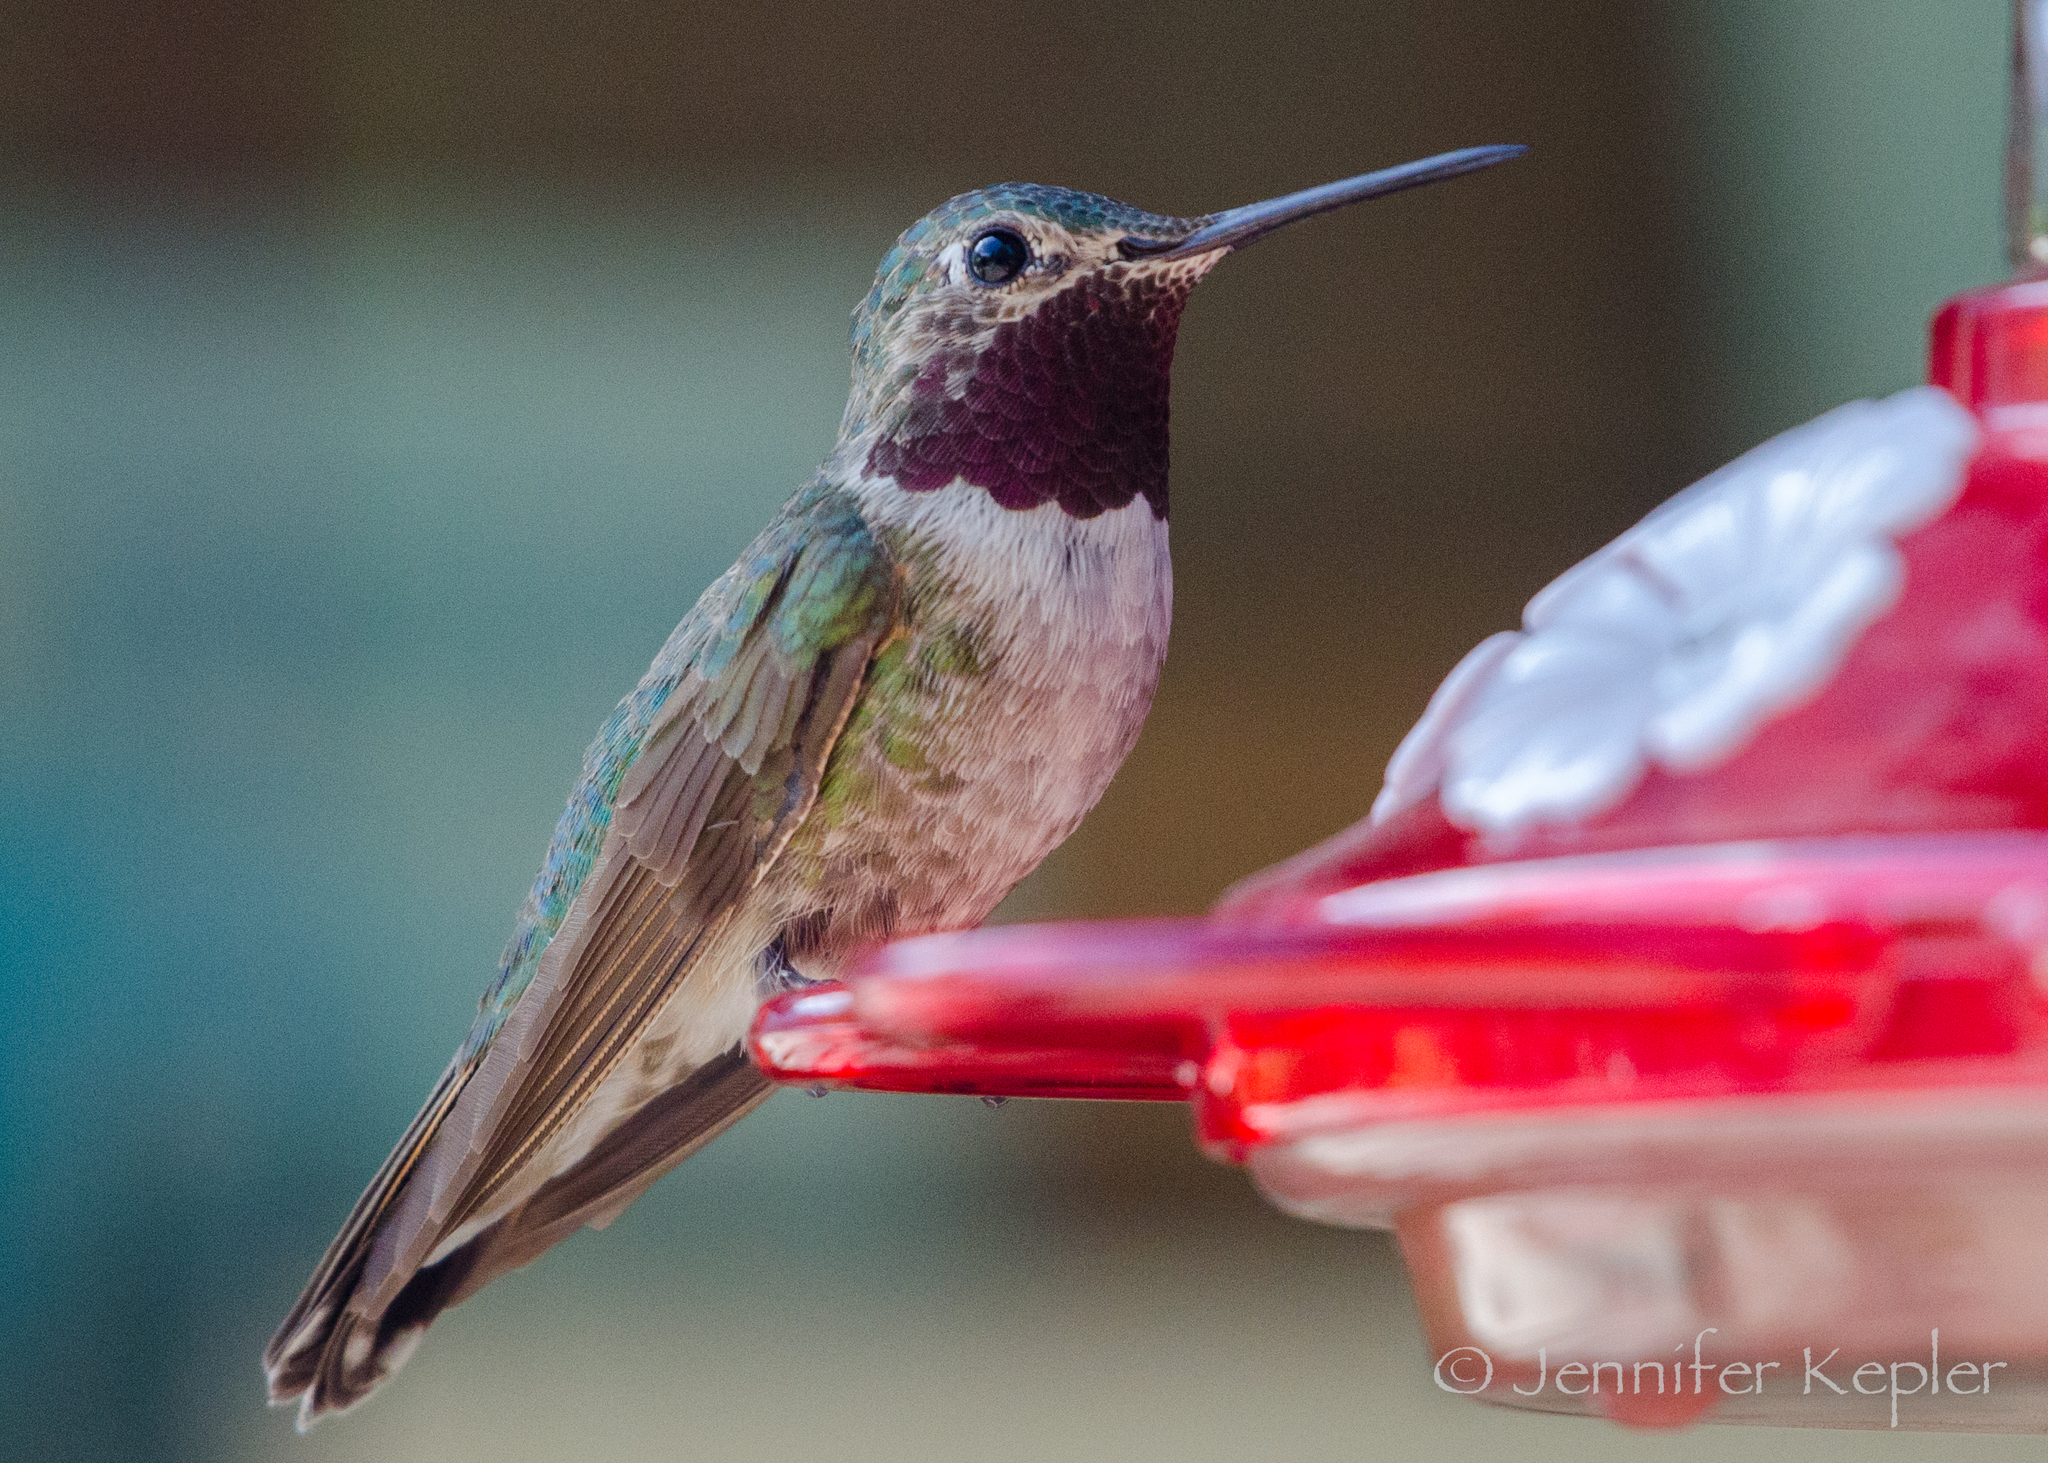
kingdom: Animalia
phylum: Chordata
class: Aves
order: Apodiformes
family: Trochilidae
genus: Selasphorus
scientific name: Selasphorus platycercus
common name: Broad-tailed hummingbird
